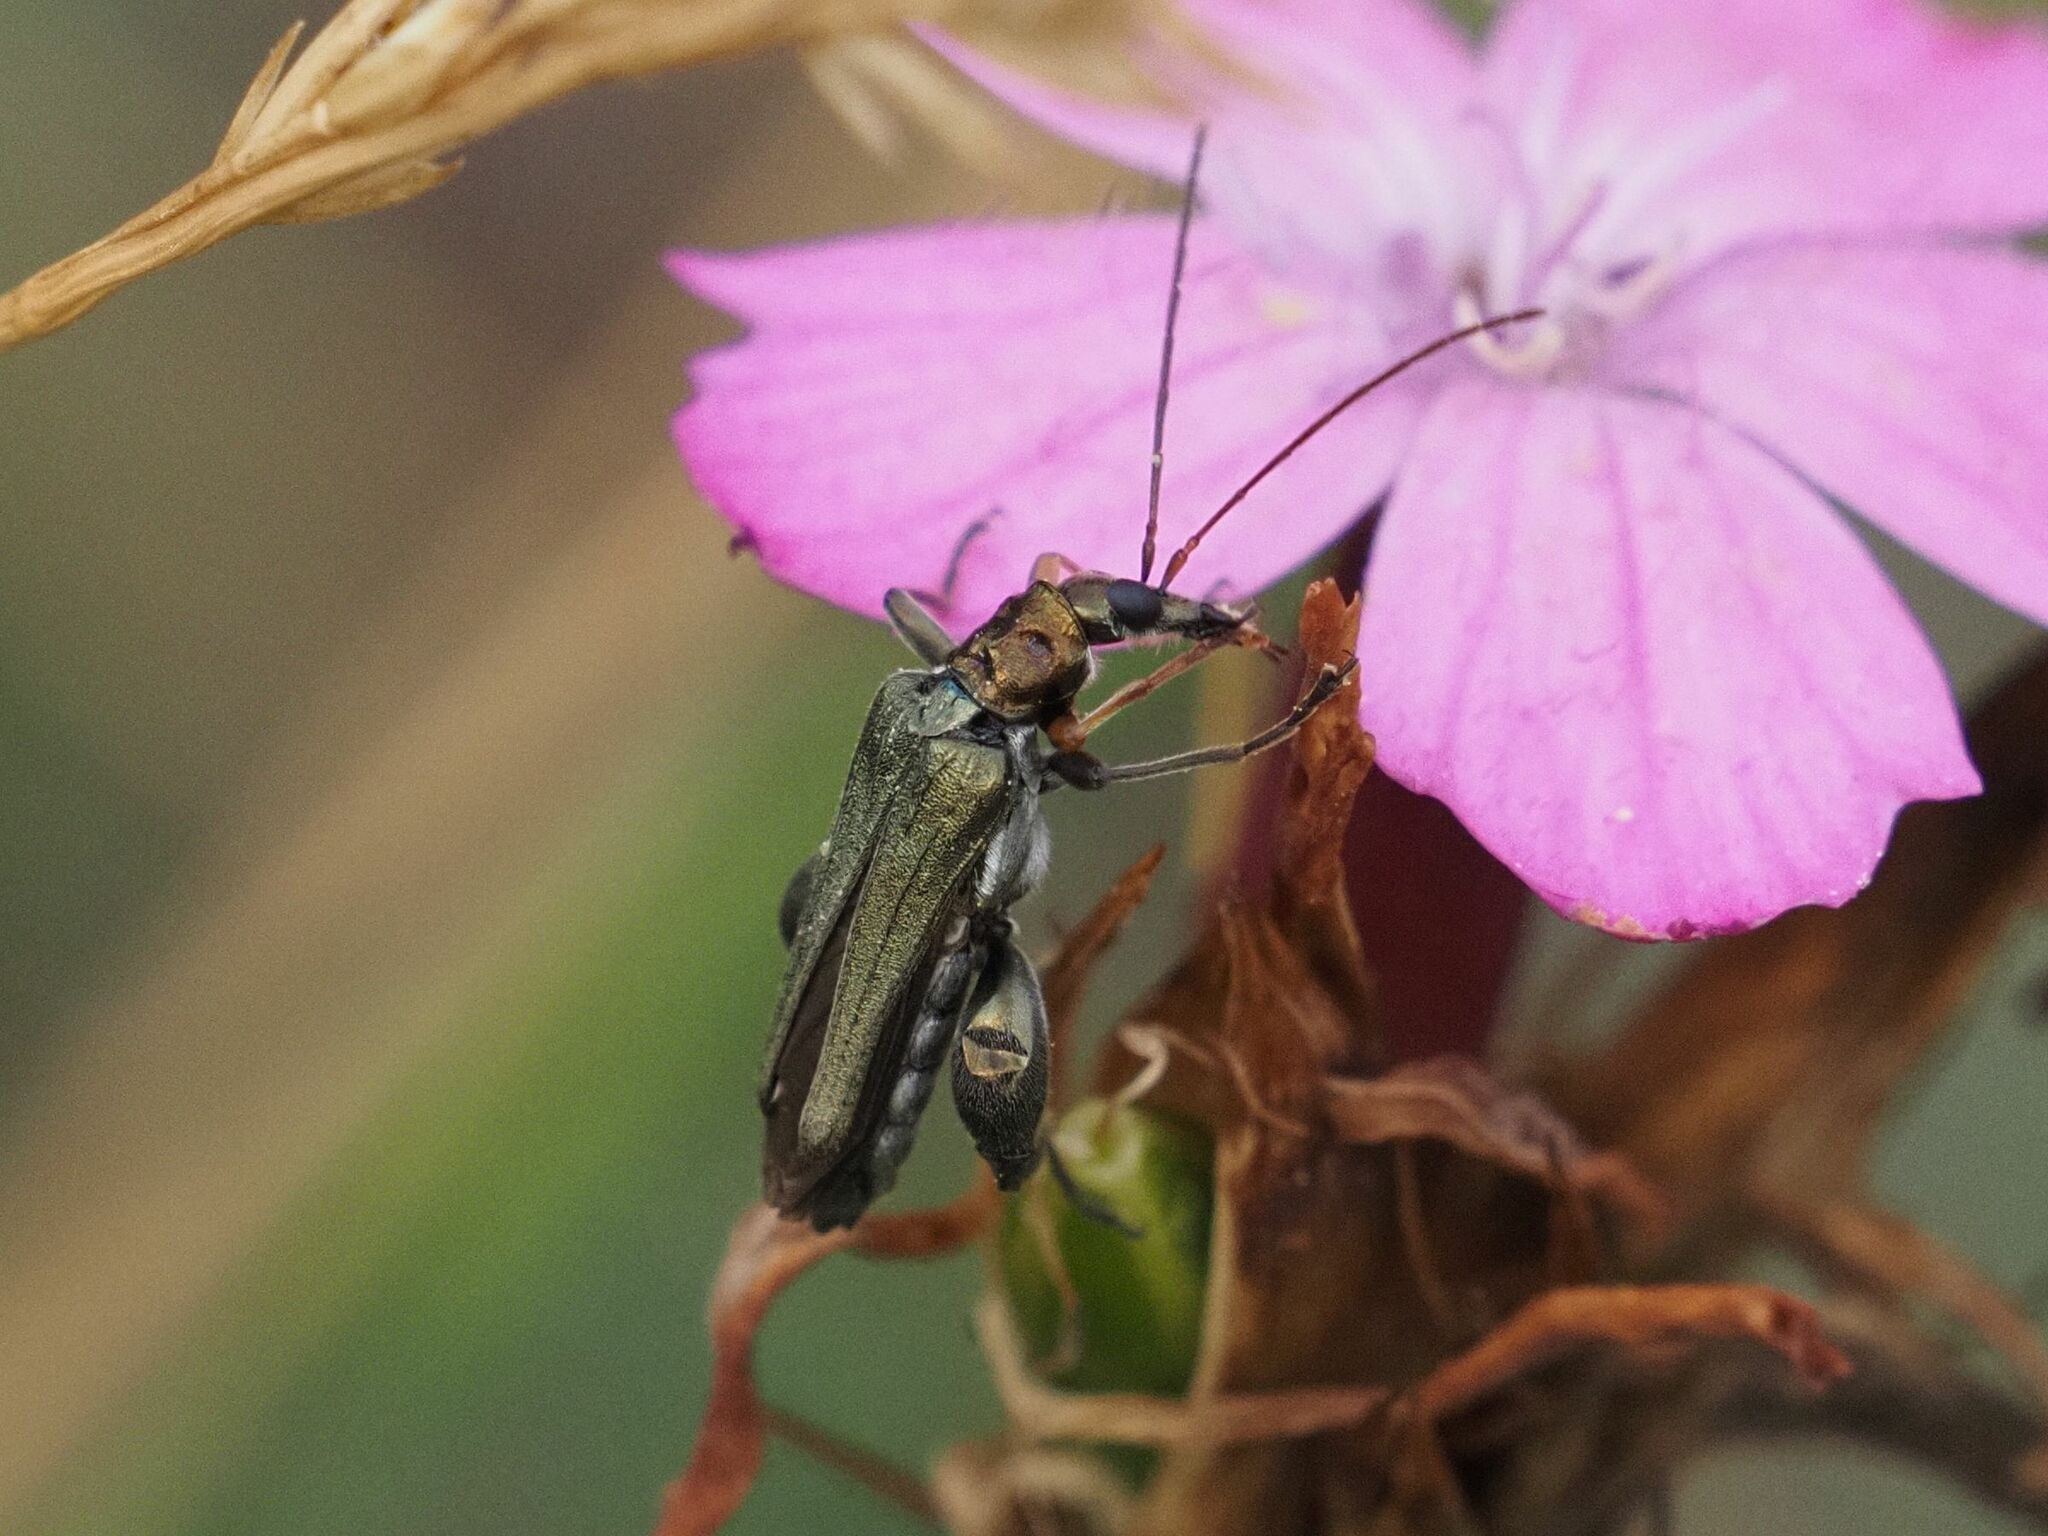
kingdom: Animalia
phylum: Arthropoda
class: Insecta
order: Coleoptera
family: Oedemeridae
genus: Oedemera
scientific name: Oedemera flavipes
